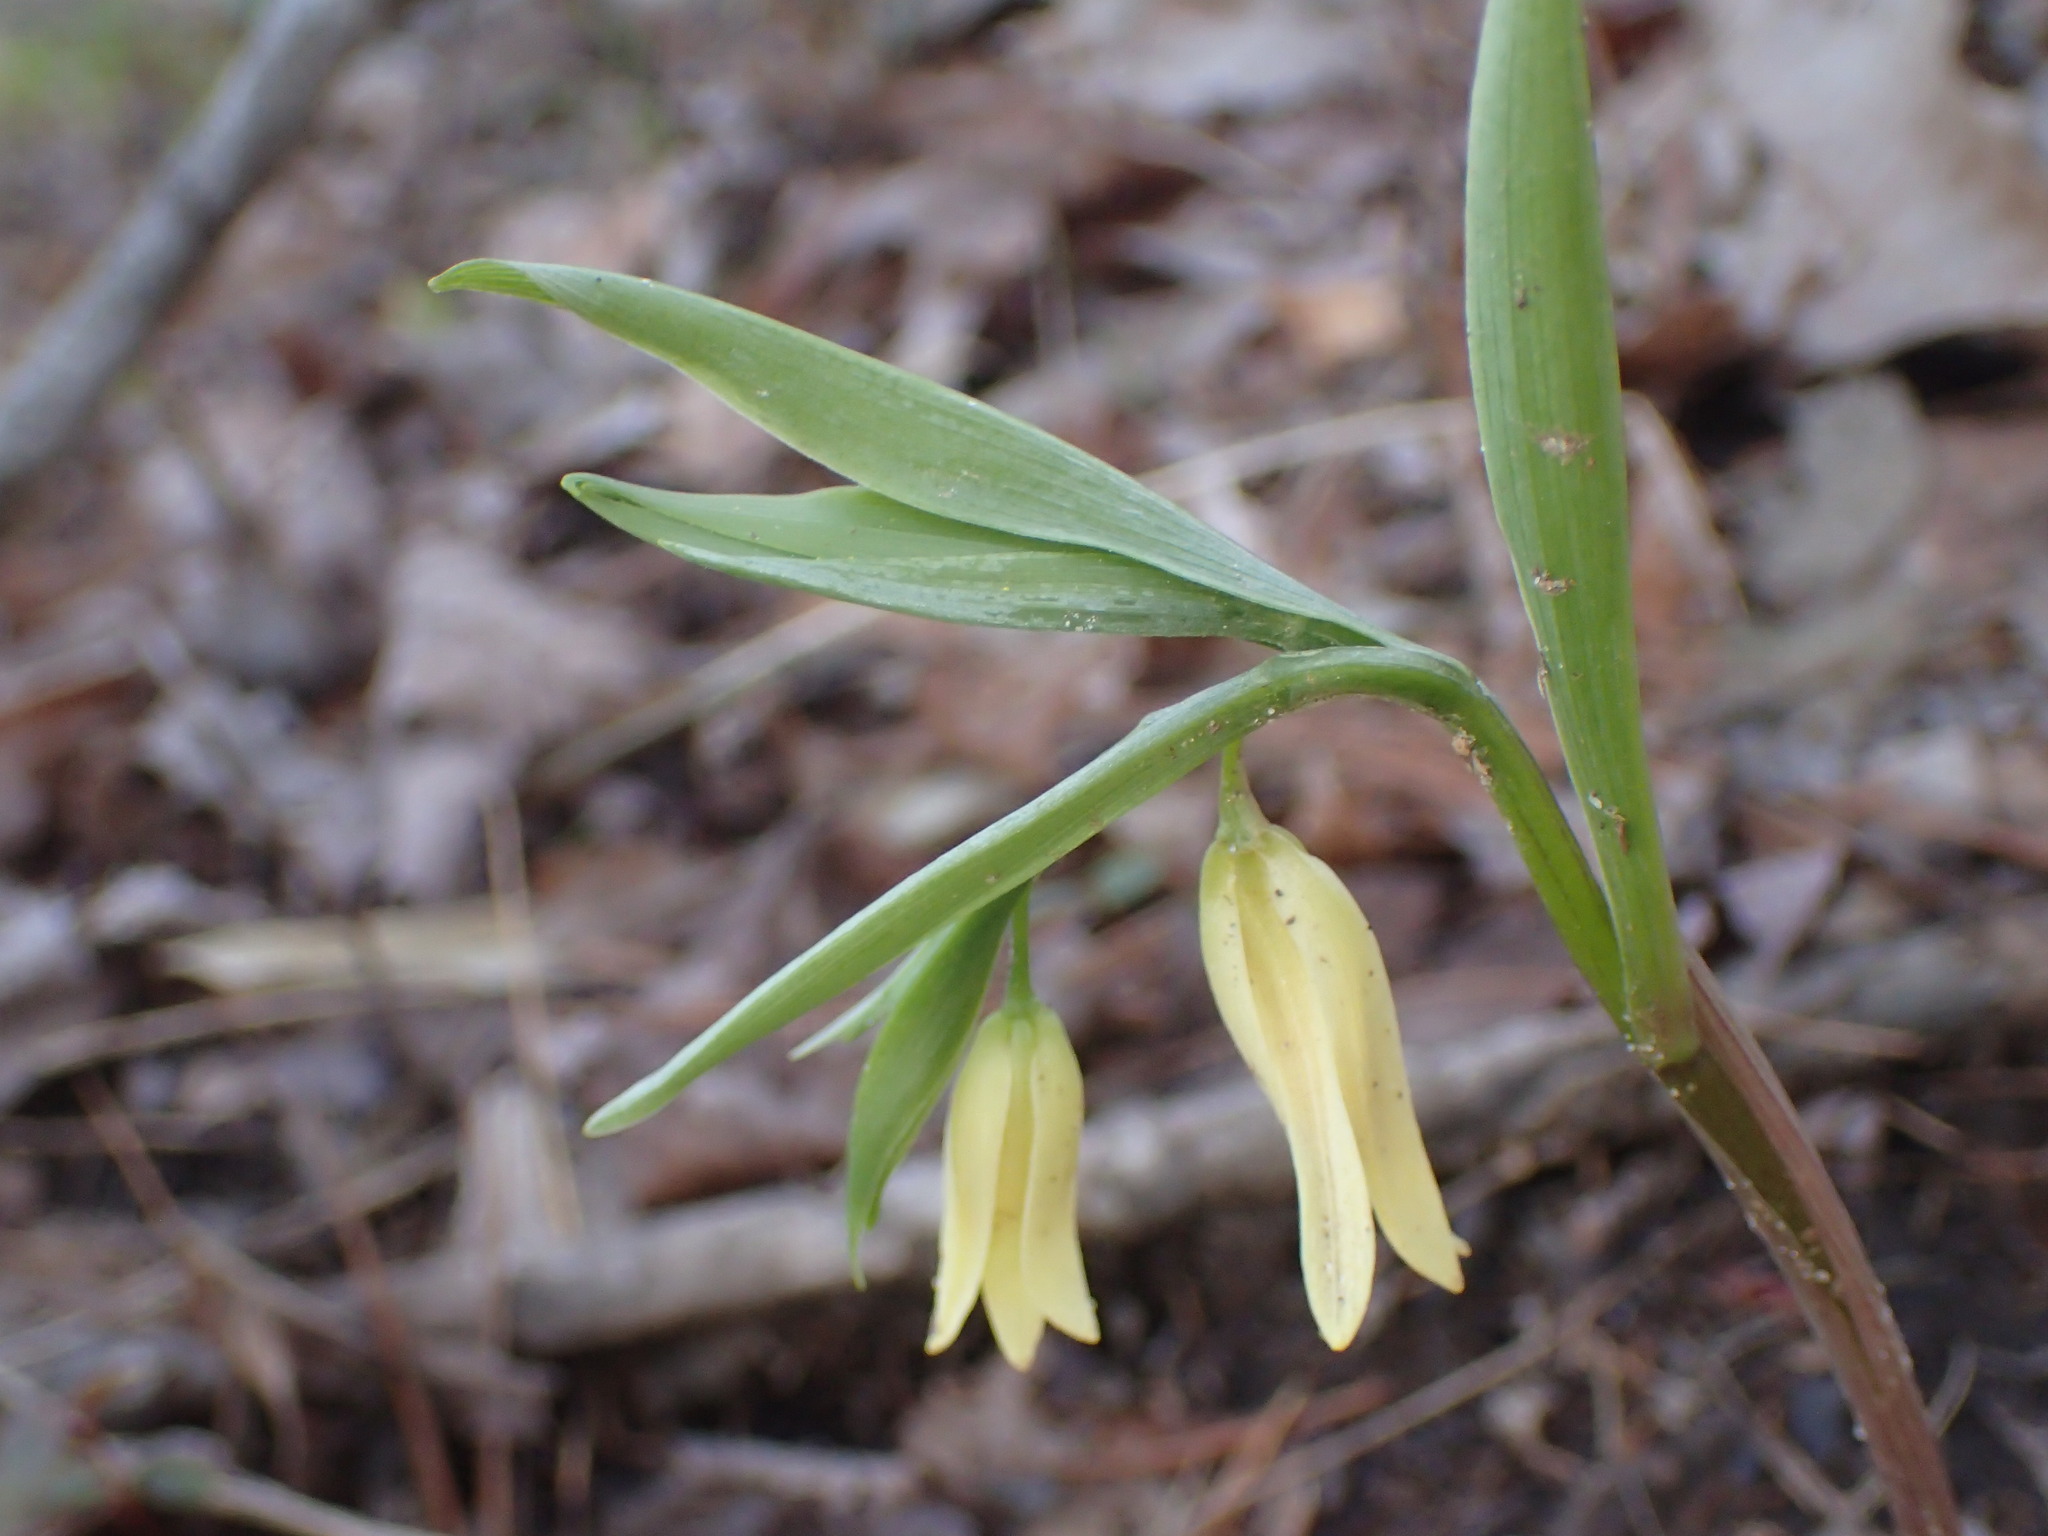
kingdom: Plantae
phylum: Tracheophyta
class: Liliopsida
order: Liliales
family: Colchicaceae
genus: Uvularia
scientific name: Uvularia puberula
